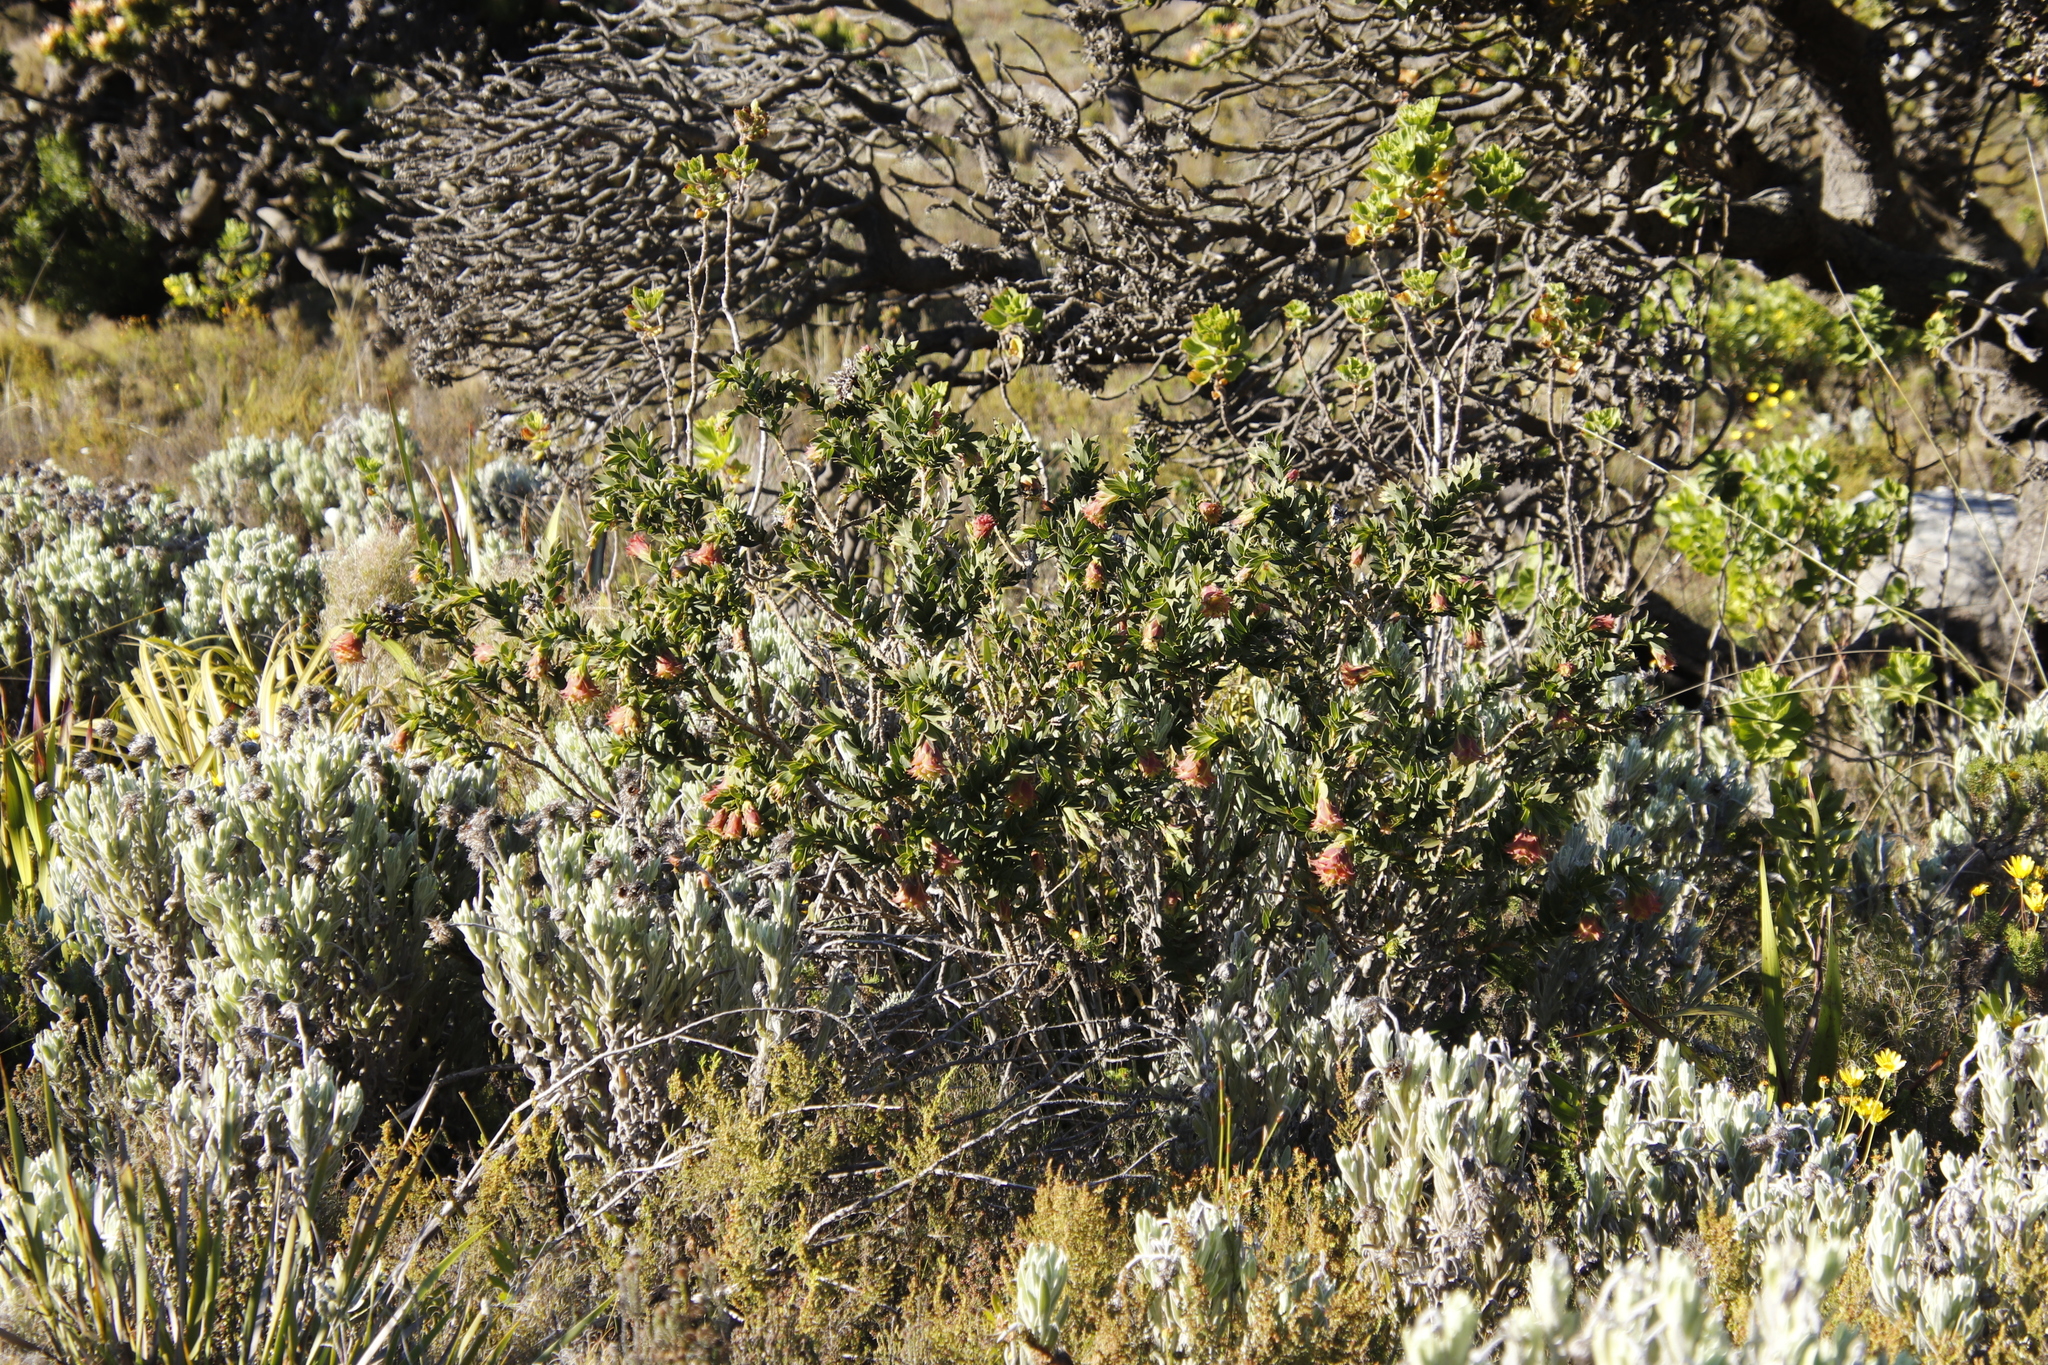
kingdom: Plantae
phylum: Tracheophyta
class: Magnoliopsida
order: Fabales
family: Fabaceae
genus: Liparia
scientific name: Liparia splendens
